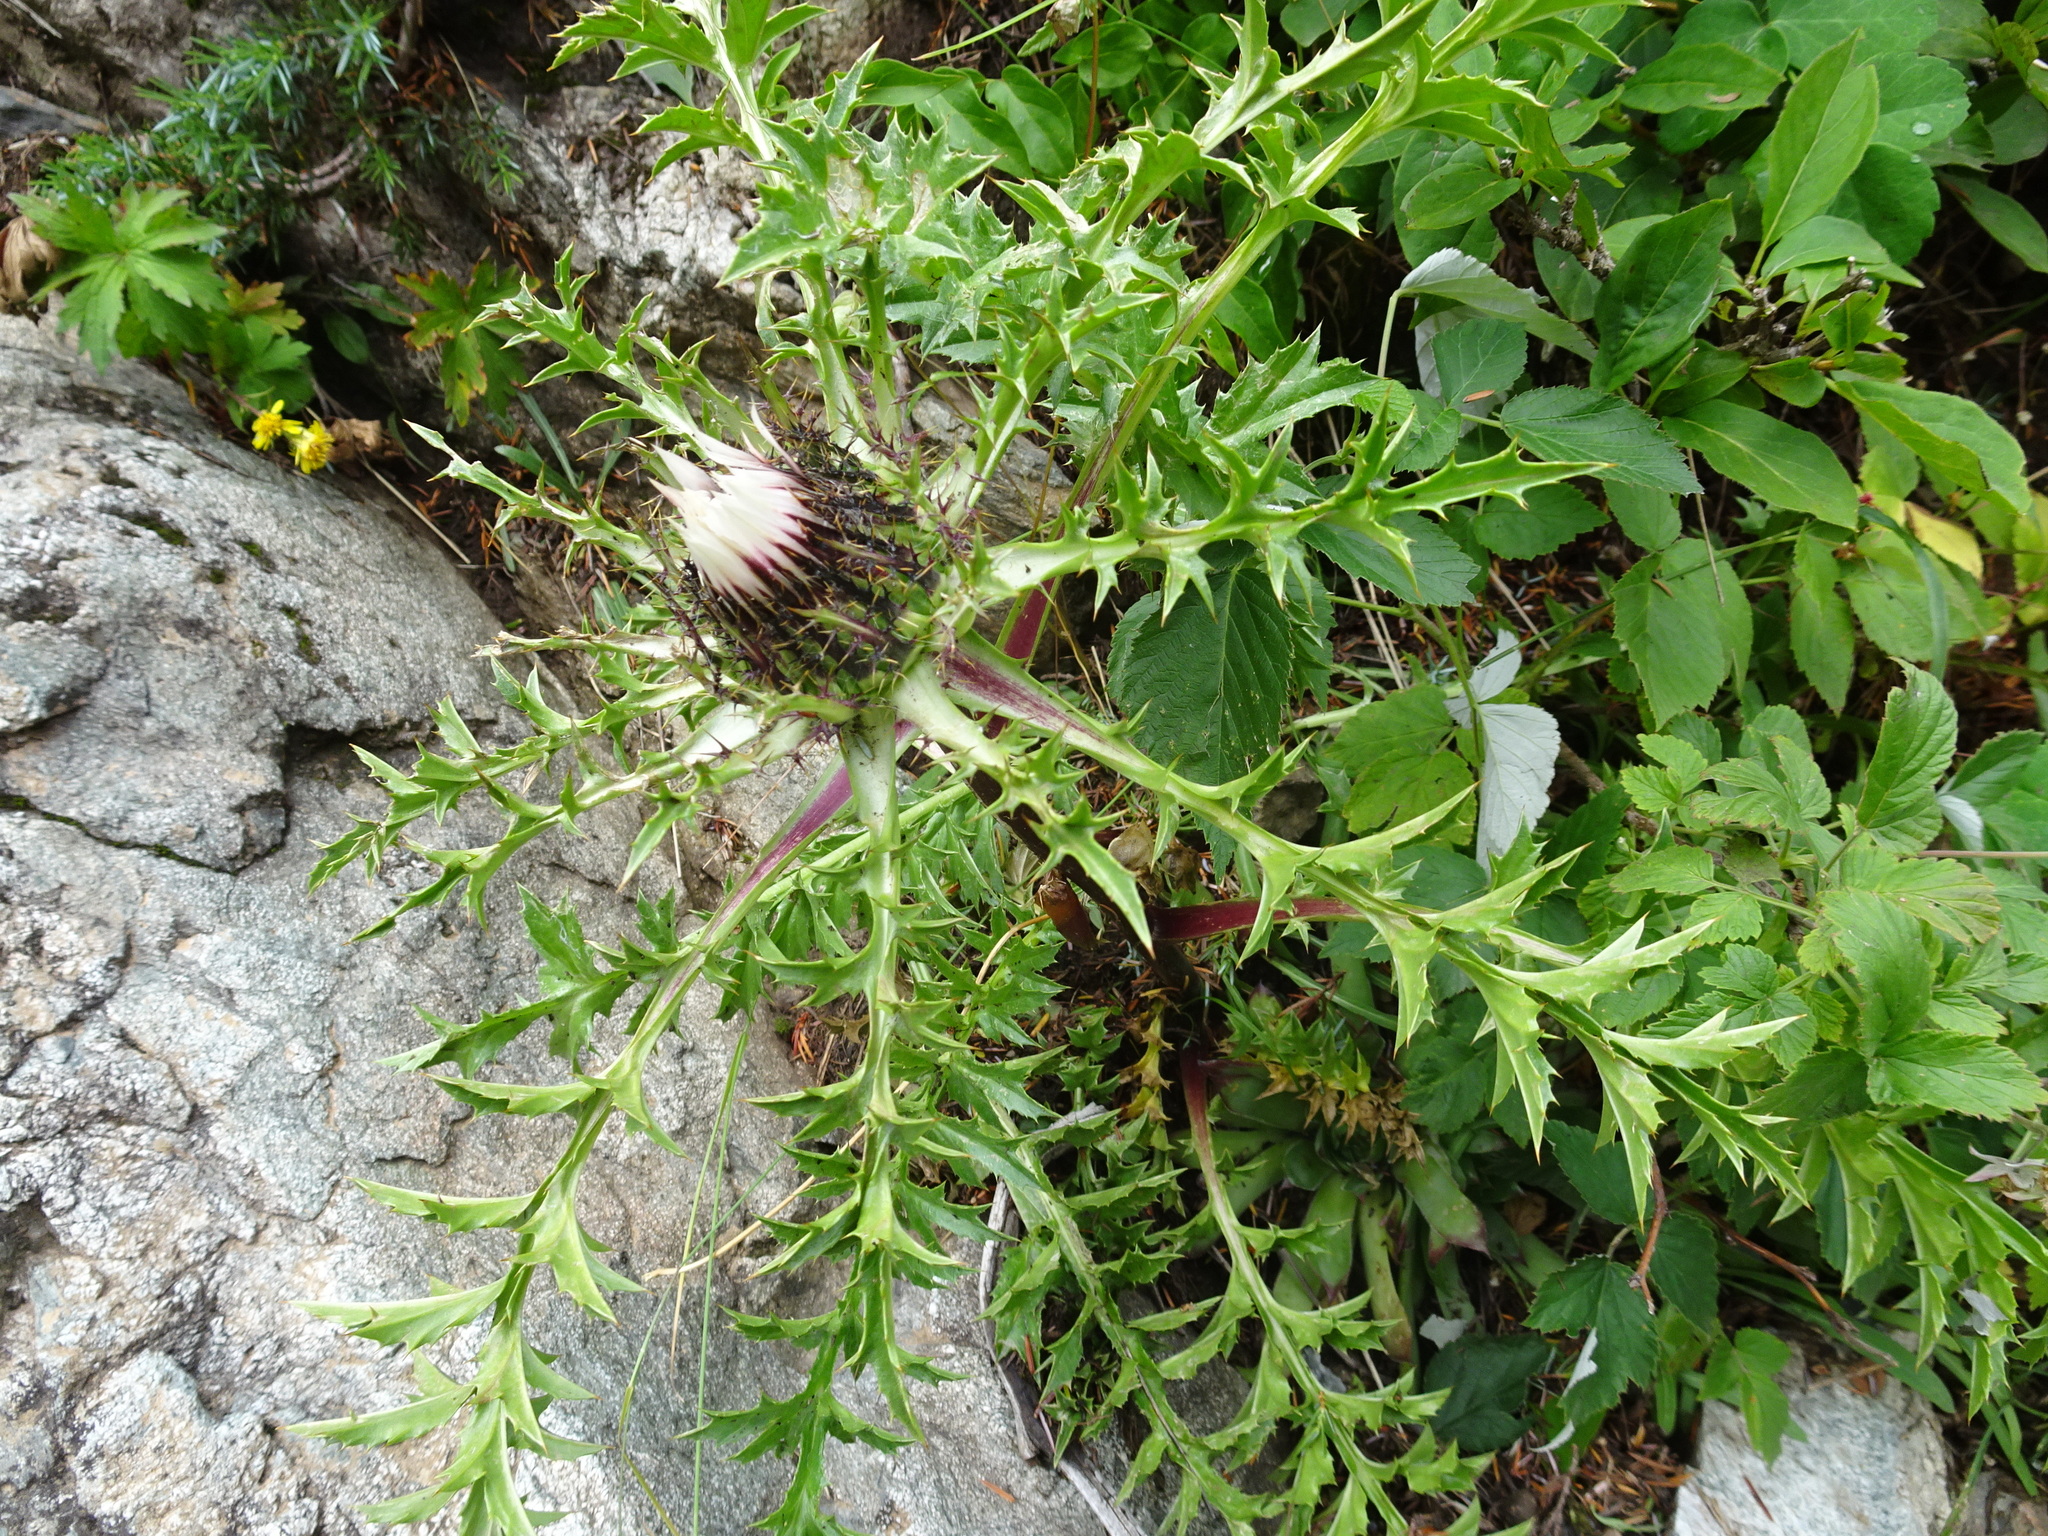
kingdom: Plantae
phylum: Tracheophyta
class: Magnoliopsida
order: Asterales
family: Asteraceae
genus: Carlina
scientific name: Carlina acaulis
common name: Stemless carline thistle
